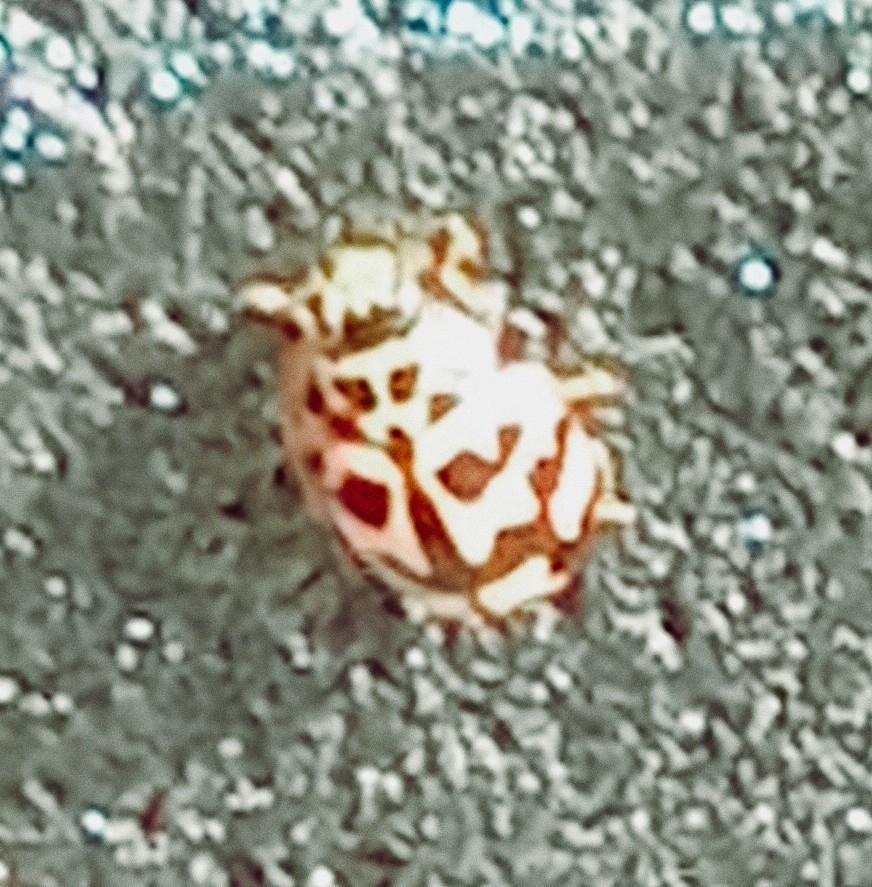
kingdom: Animalia
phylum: Arthropoda
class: Insecta
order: Coleoptera
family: Coccinellidae
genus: Oenopia
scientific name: Oenopia conglobata
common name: Ladybird beetle
